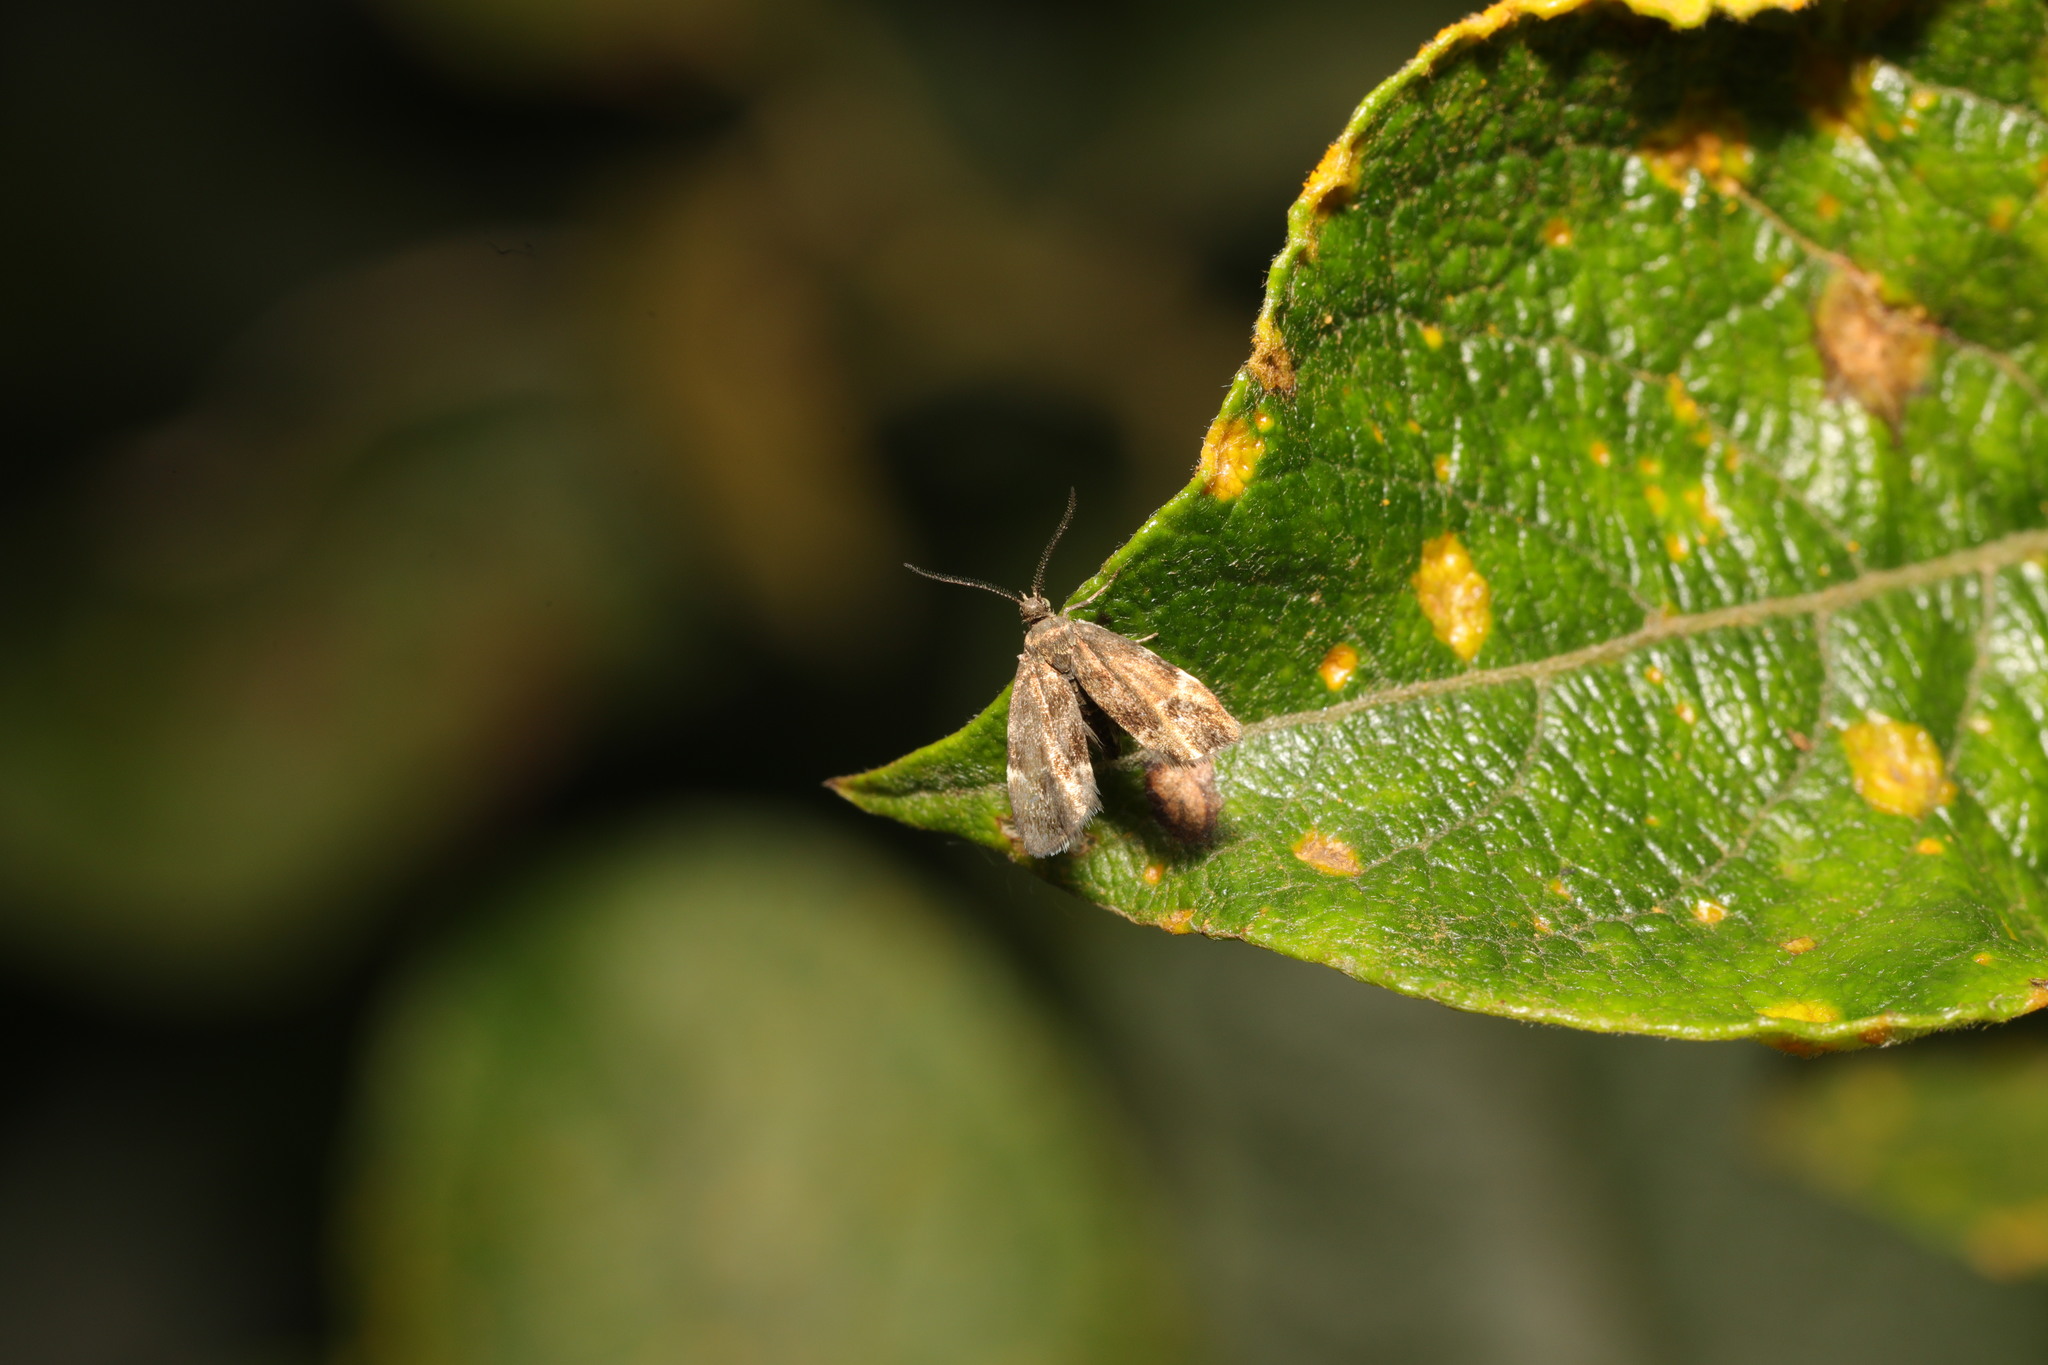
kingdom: Animalia
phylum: Arthropoda
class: Insecta
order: Lepidoptera
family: Choreutidae
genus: Anthophila
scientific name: Anthophila fabriciana
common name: Nettle-tap
